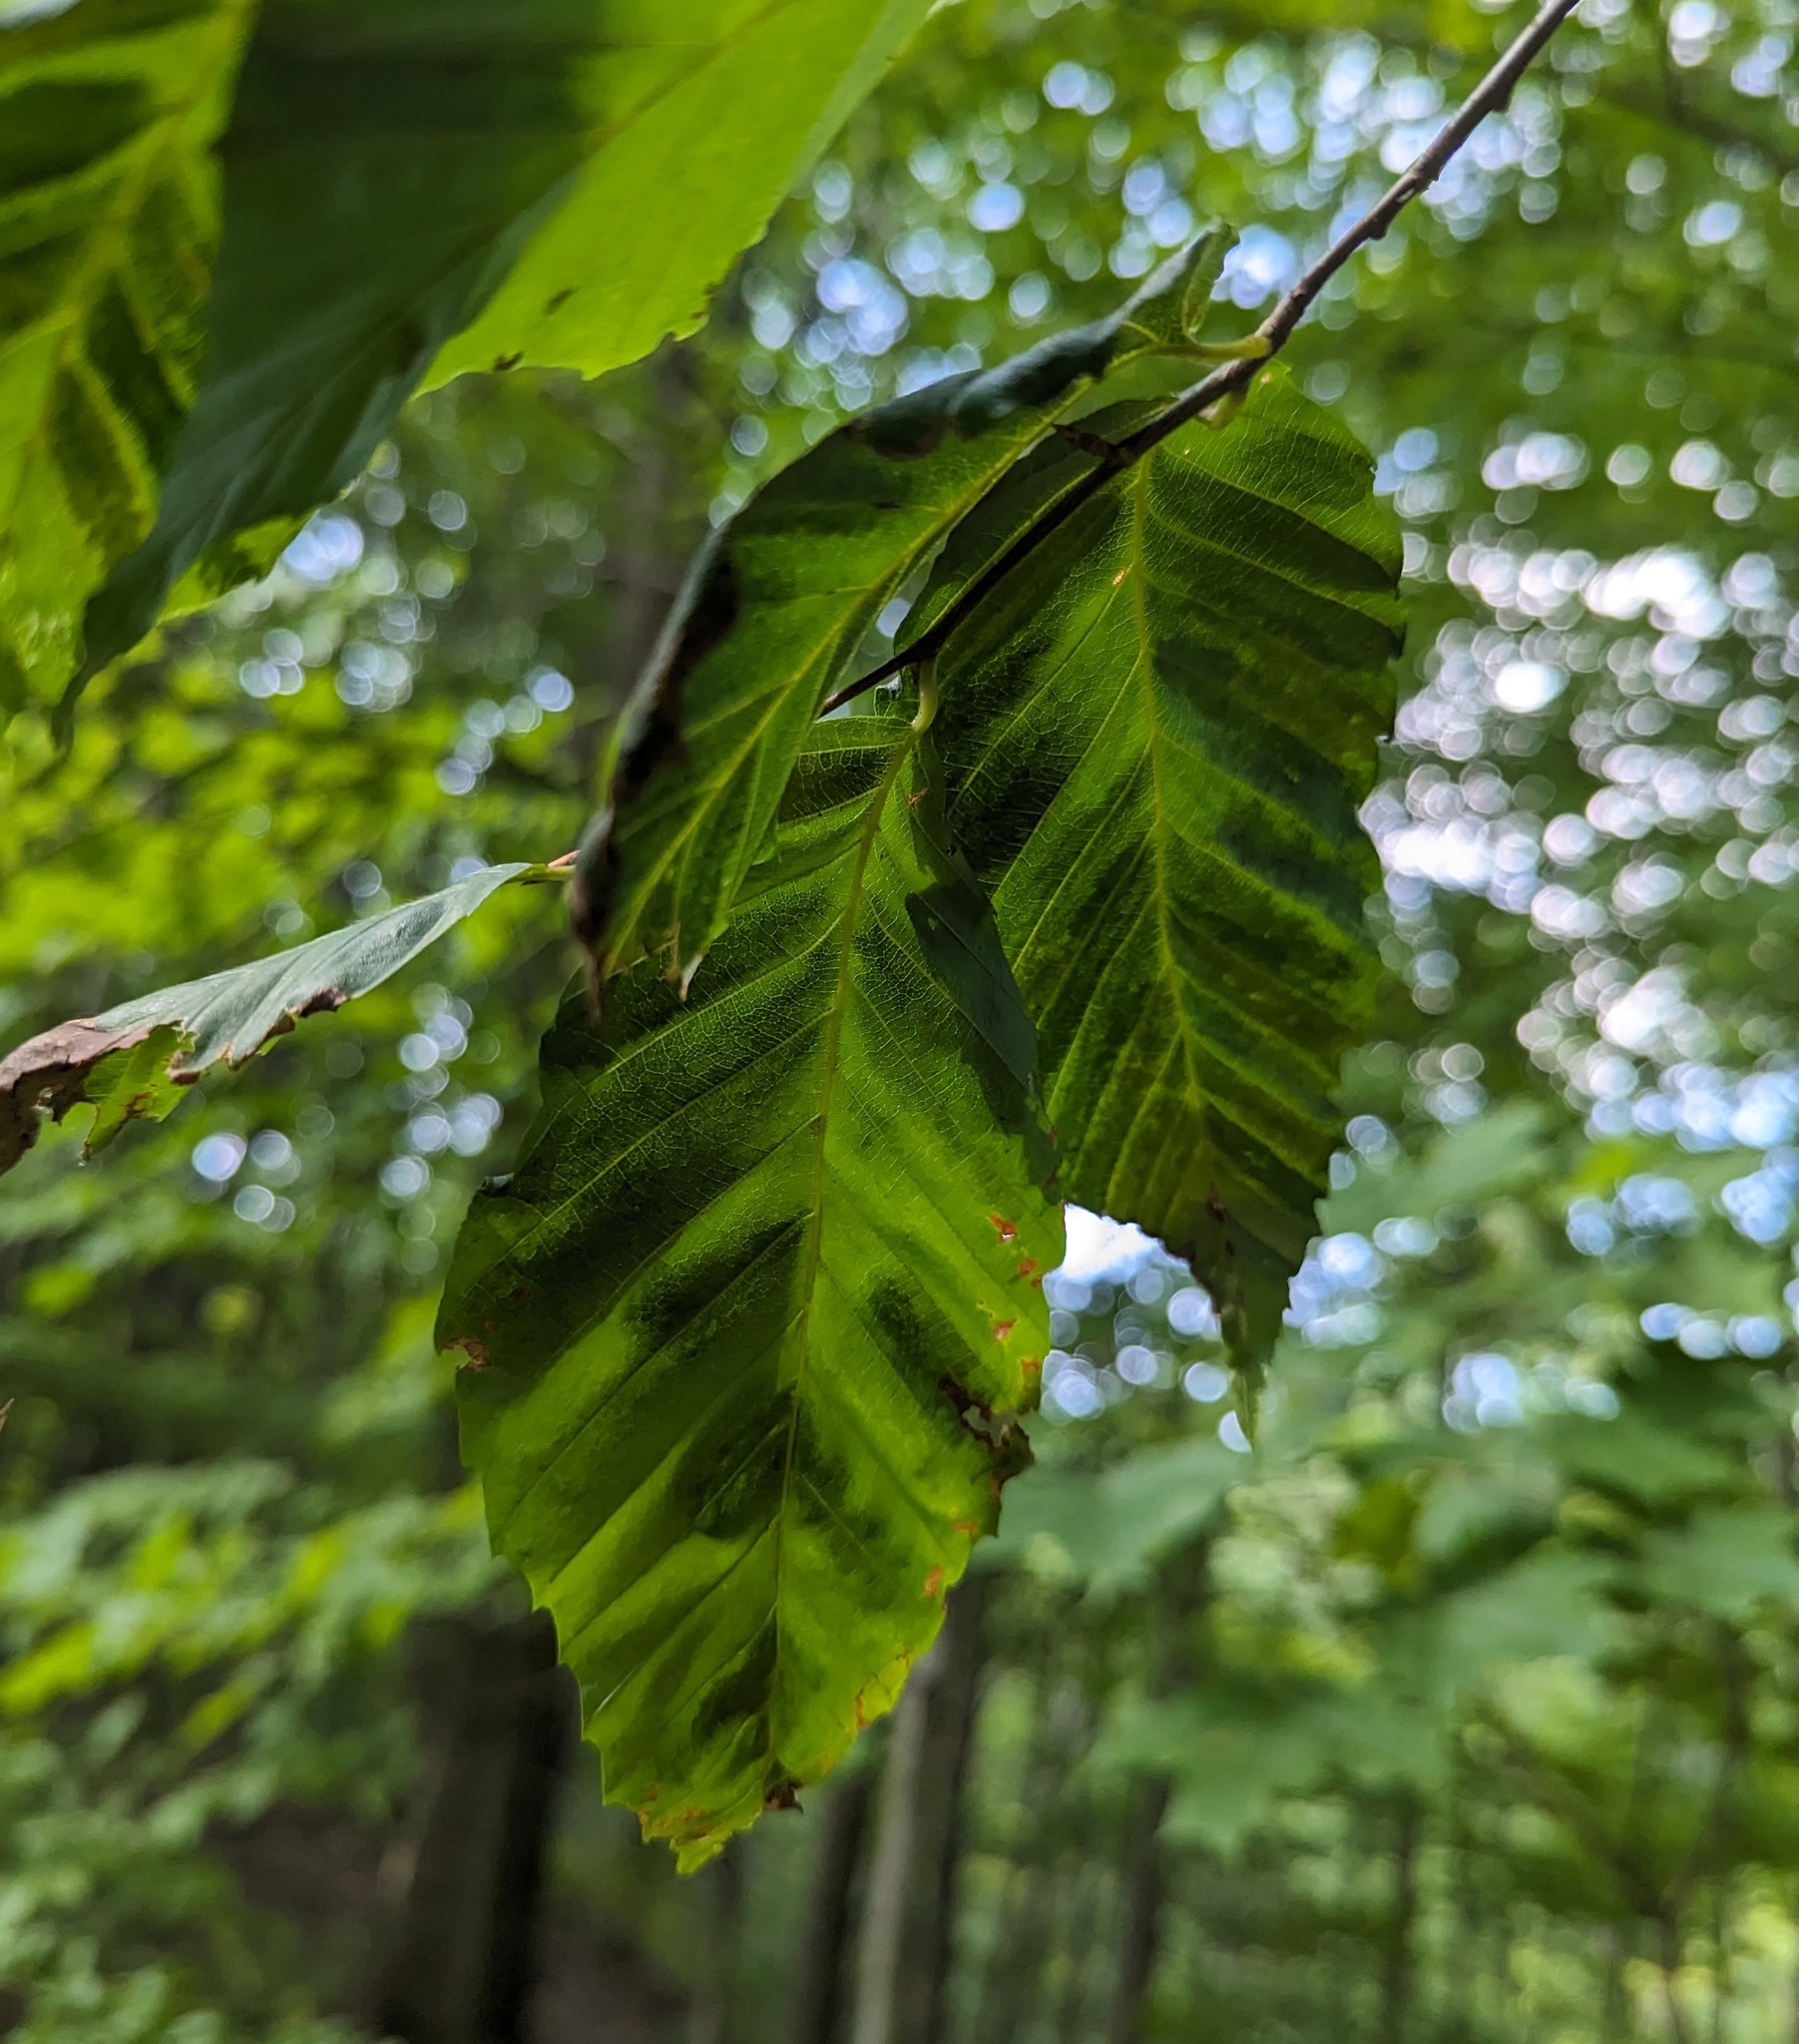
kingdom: Plantae
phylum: Tracheophyta
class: Magnoliopsida
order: Fagales
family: Fagaceae
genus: Fagus
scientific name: Fagus grandifolia
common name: American beech
